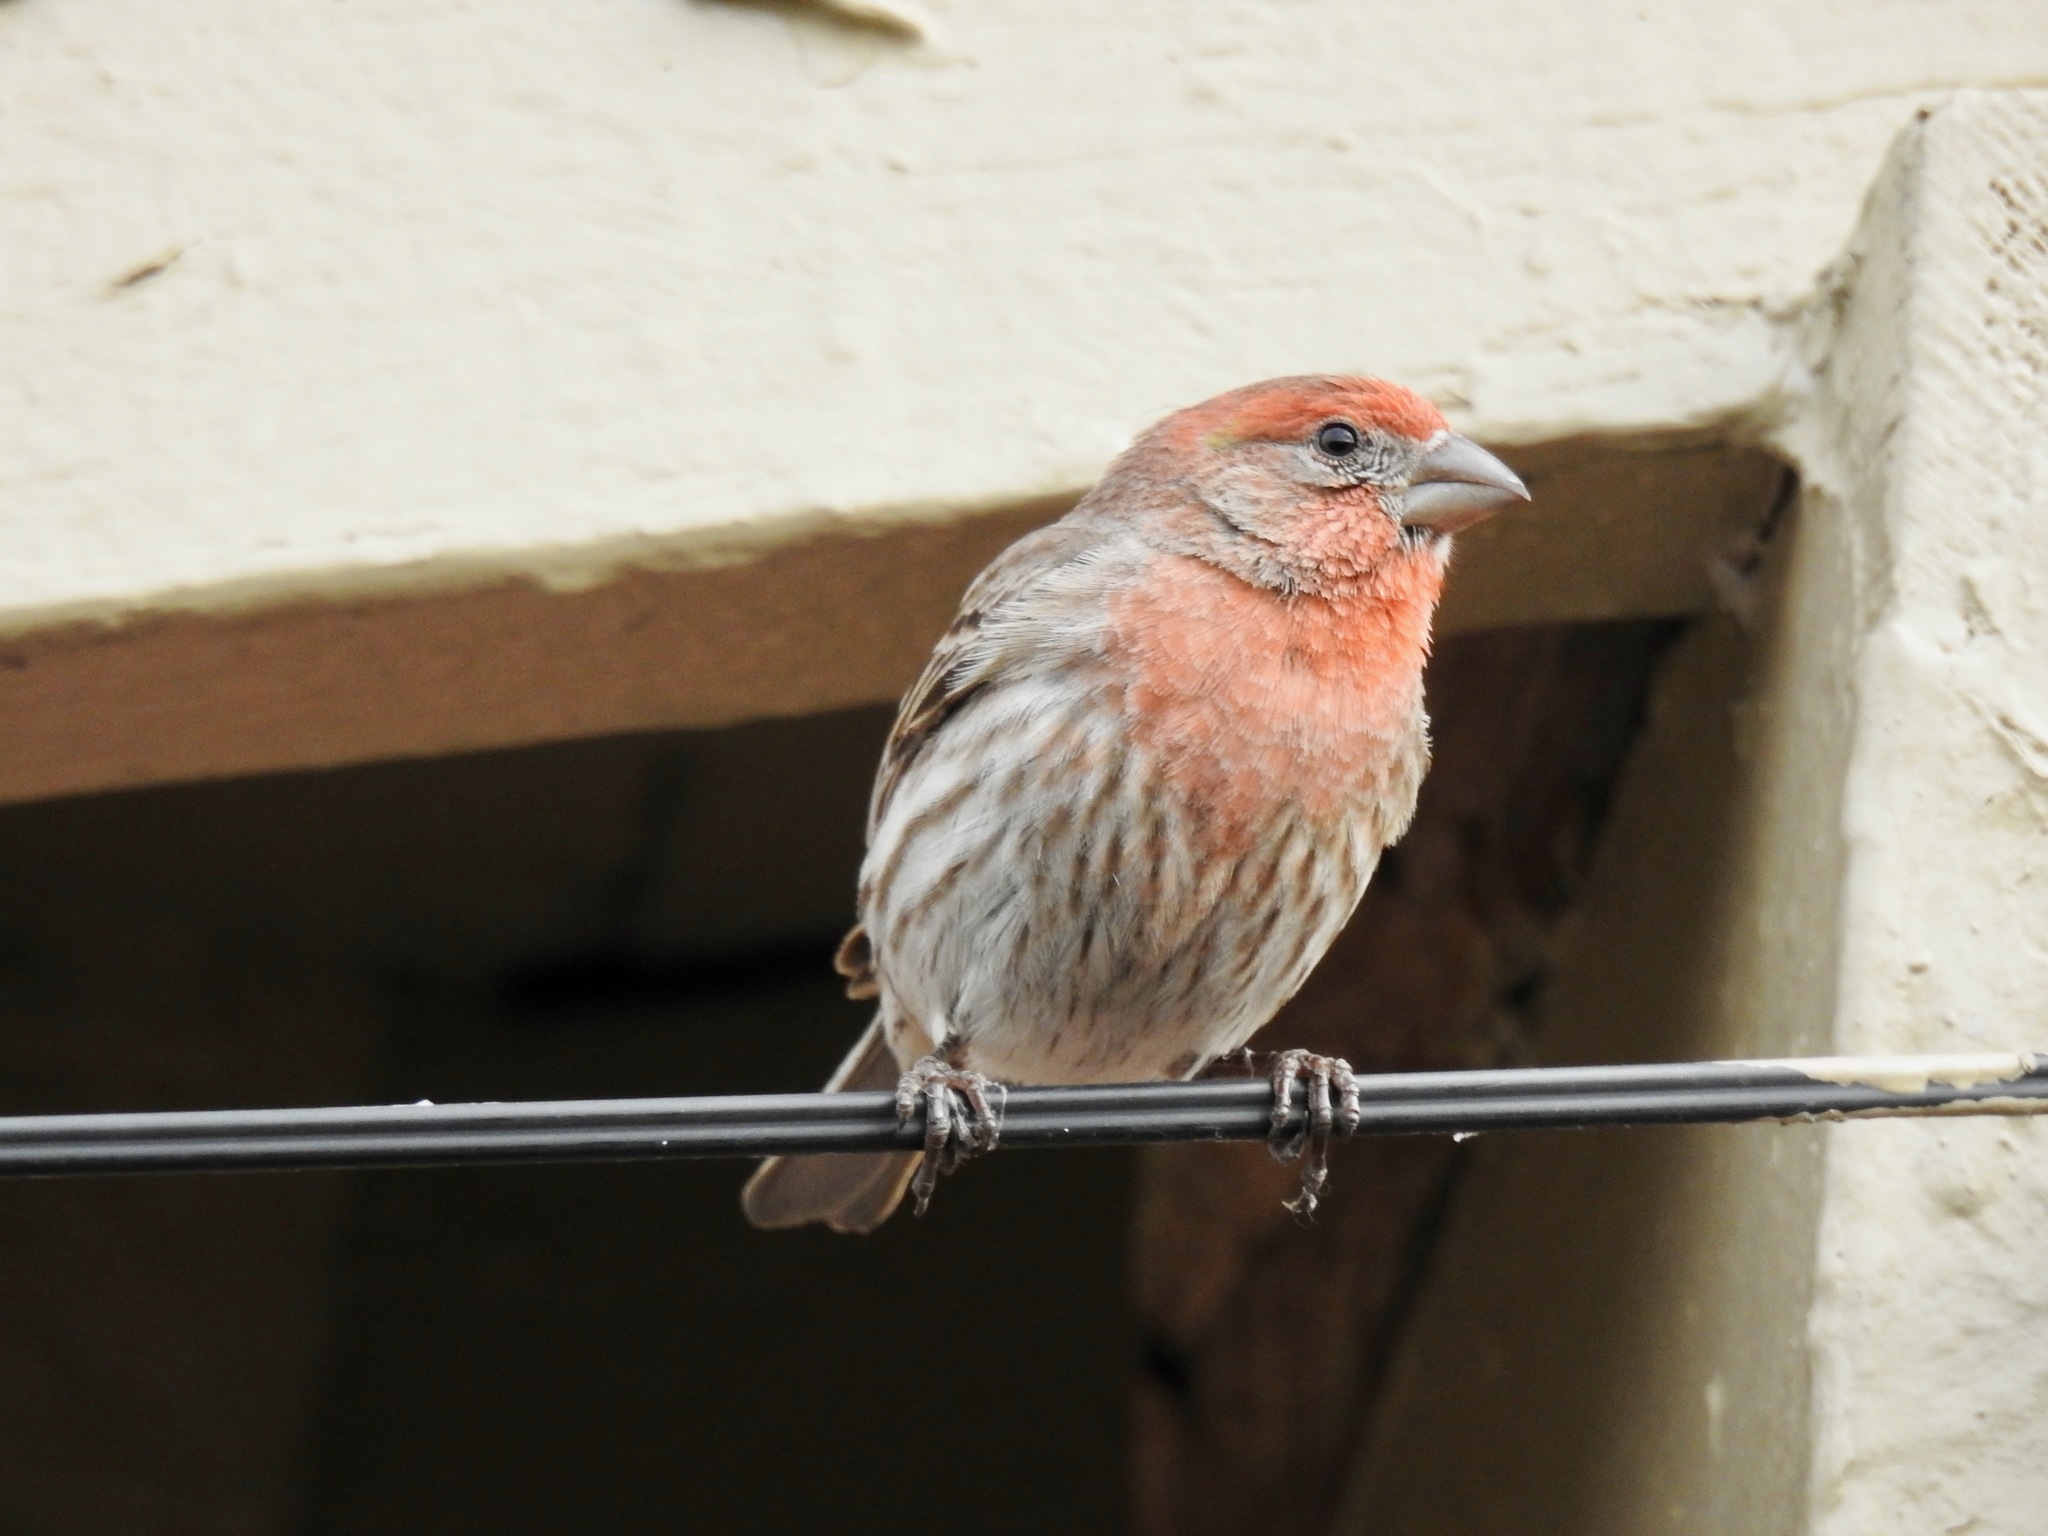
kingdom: Animalia
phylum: Chordata
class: Aves
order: Passeriformes
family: Fringillidae
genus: Haemorhous
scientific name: Haemorhous mexicanus
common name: House finch
